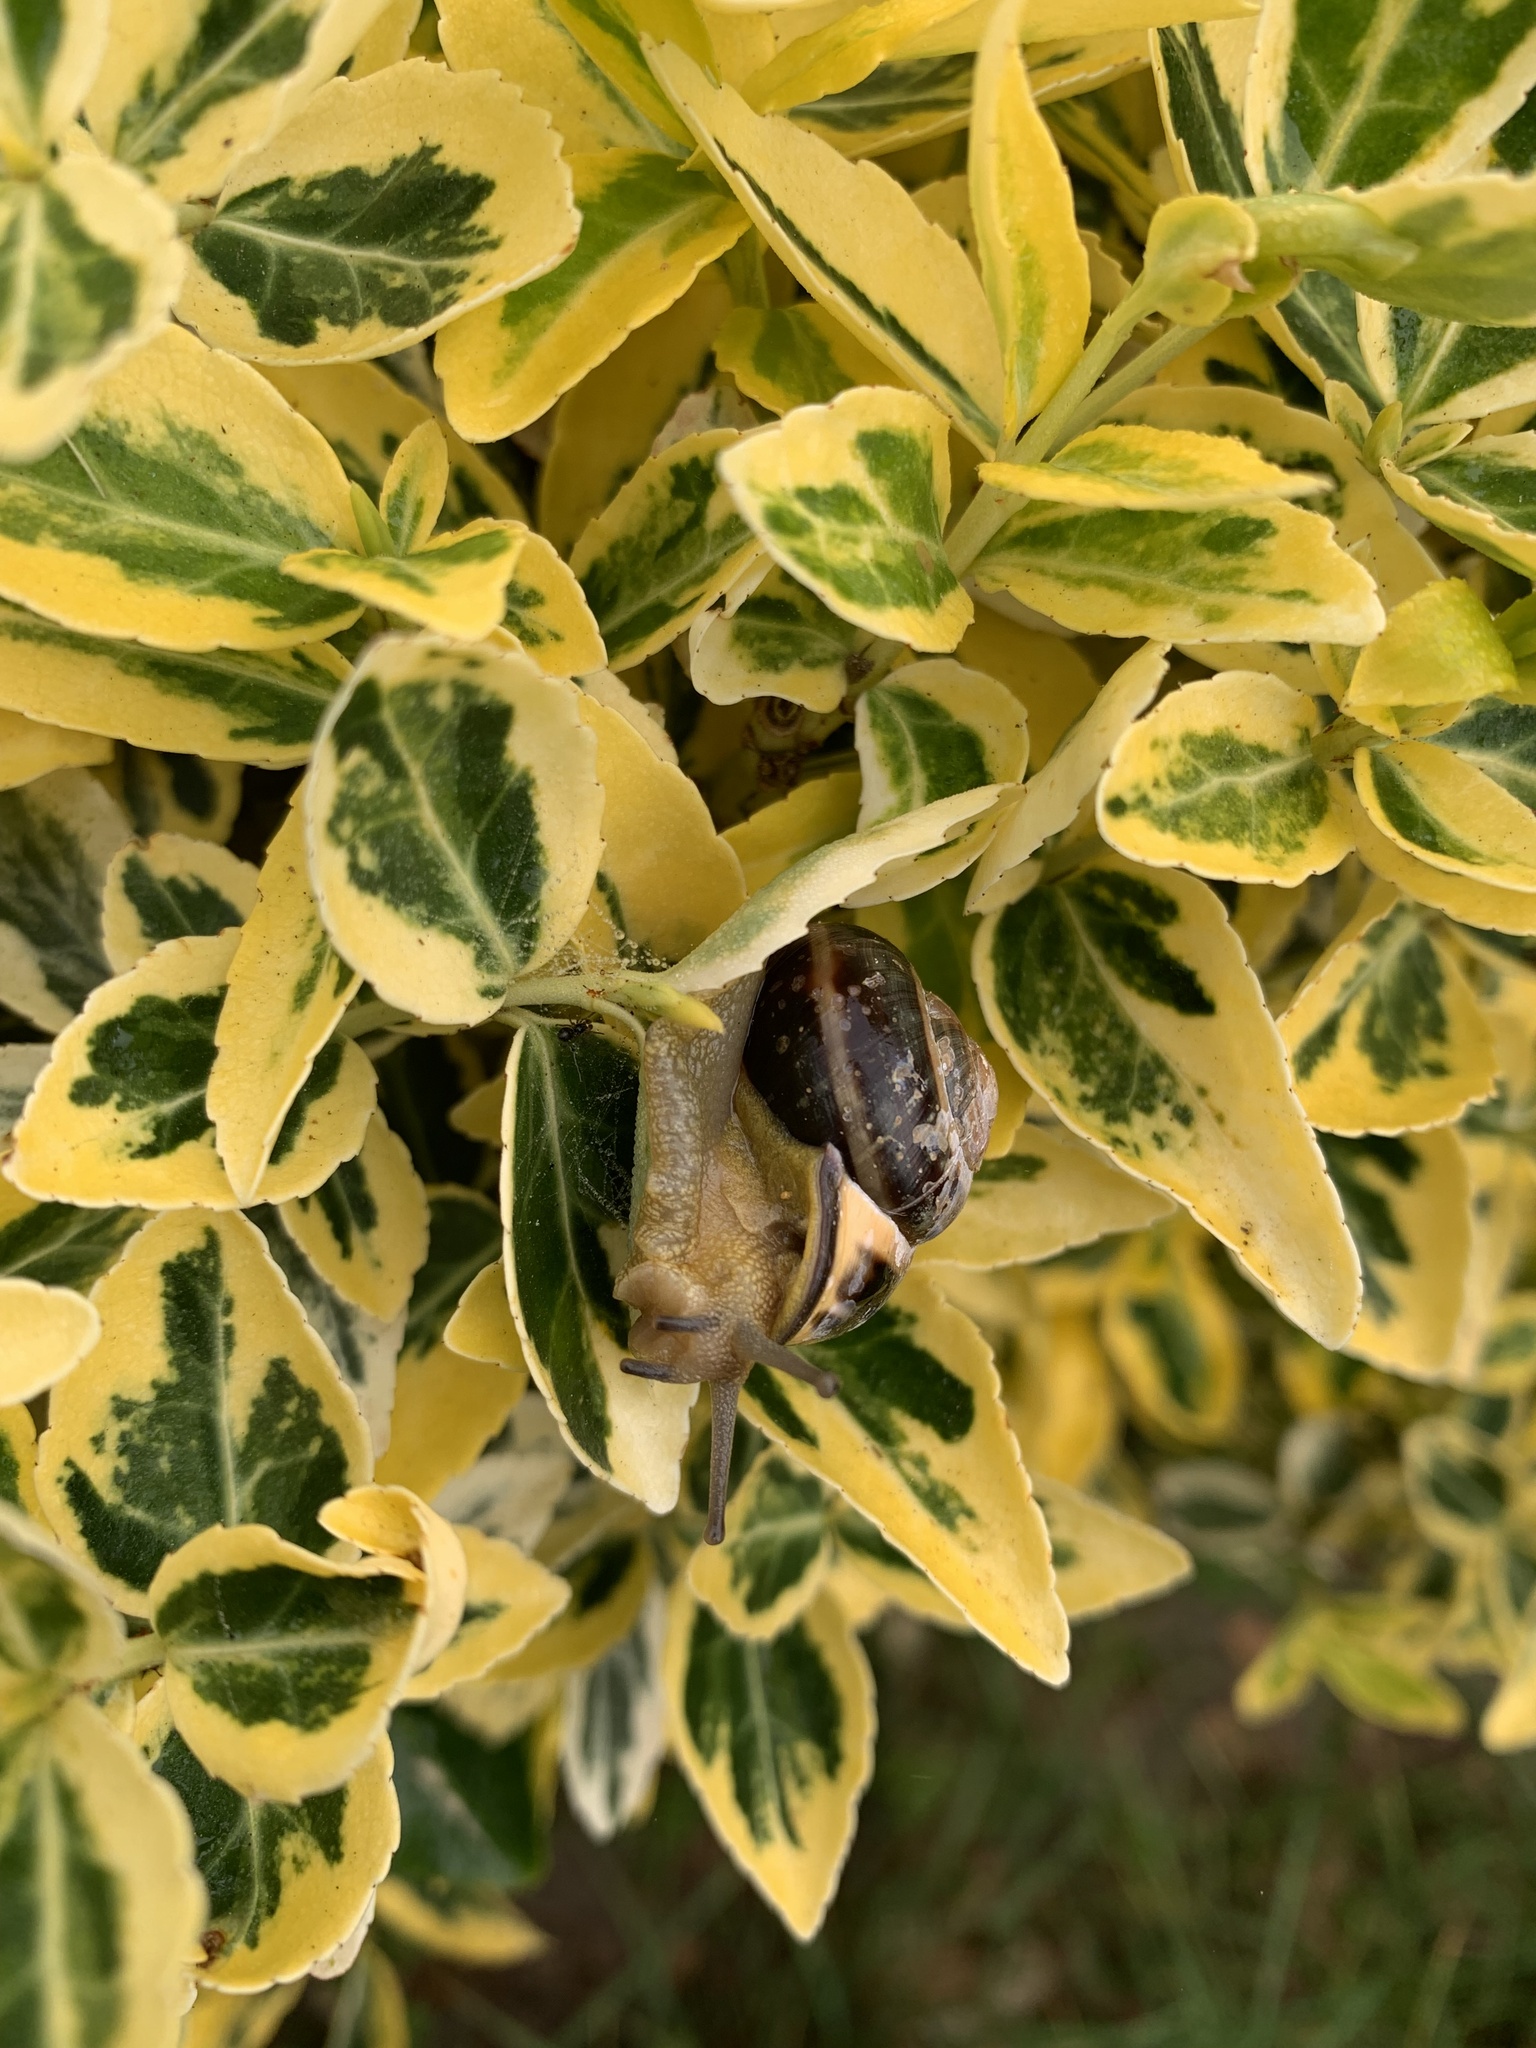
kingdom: Animalia
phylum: Mollusca
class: Gastropoda
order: Stylommatophora
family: Helicidae
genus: Cepaea
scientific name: Cepaea nemoralis
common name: Grovesnail
